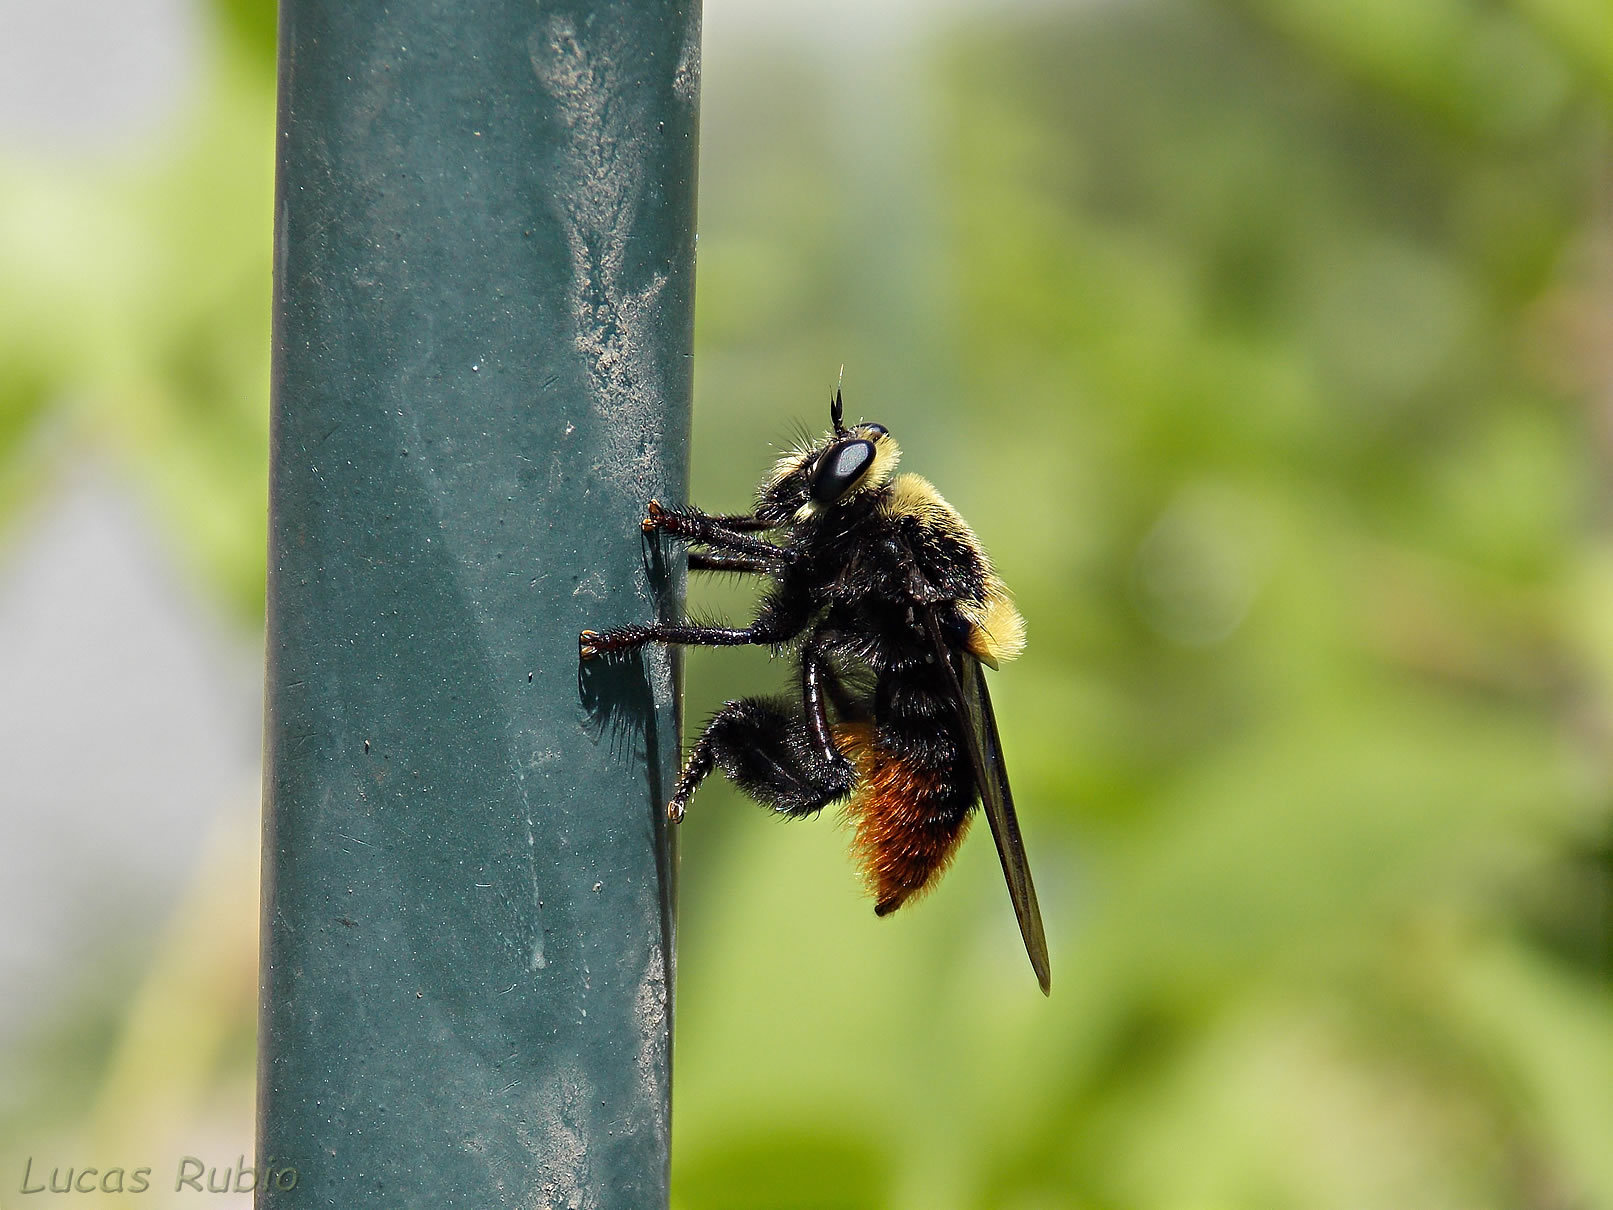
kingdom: Animalia
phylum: Arthropoda
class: Insecta
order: Diptera
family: Asilidae
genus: Mallophora
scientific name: Mallophora ruficauda
